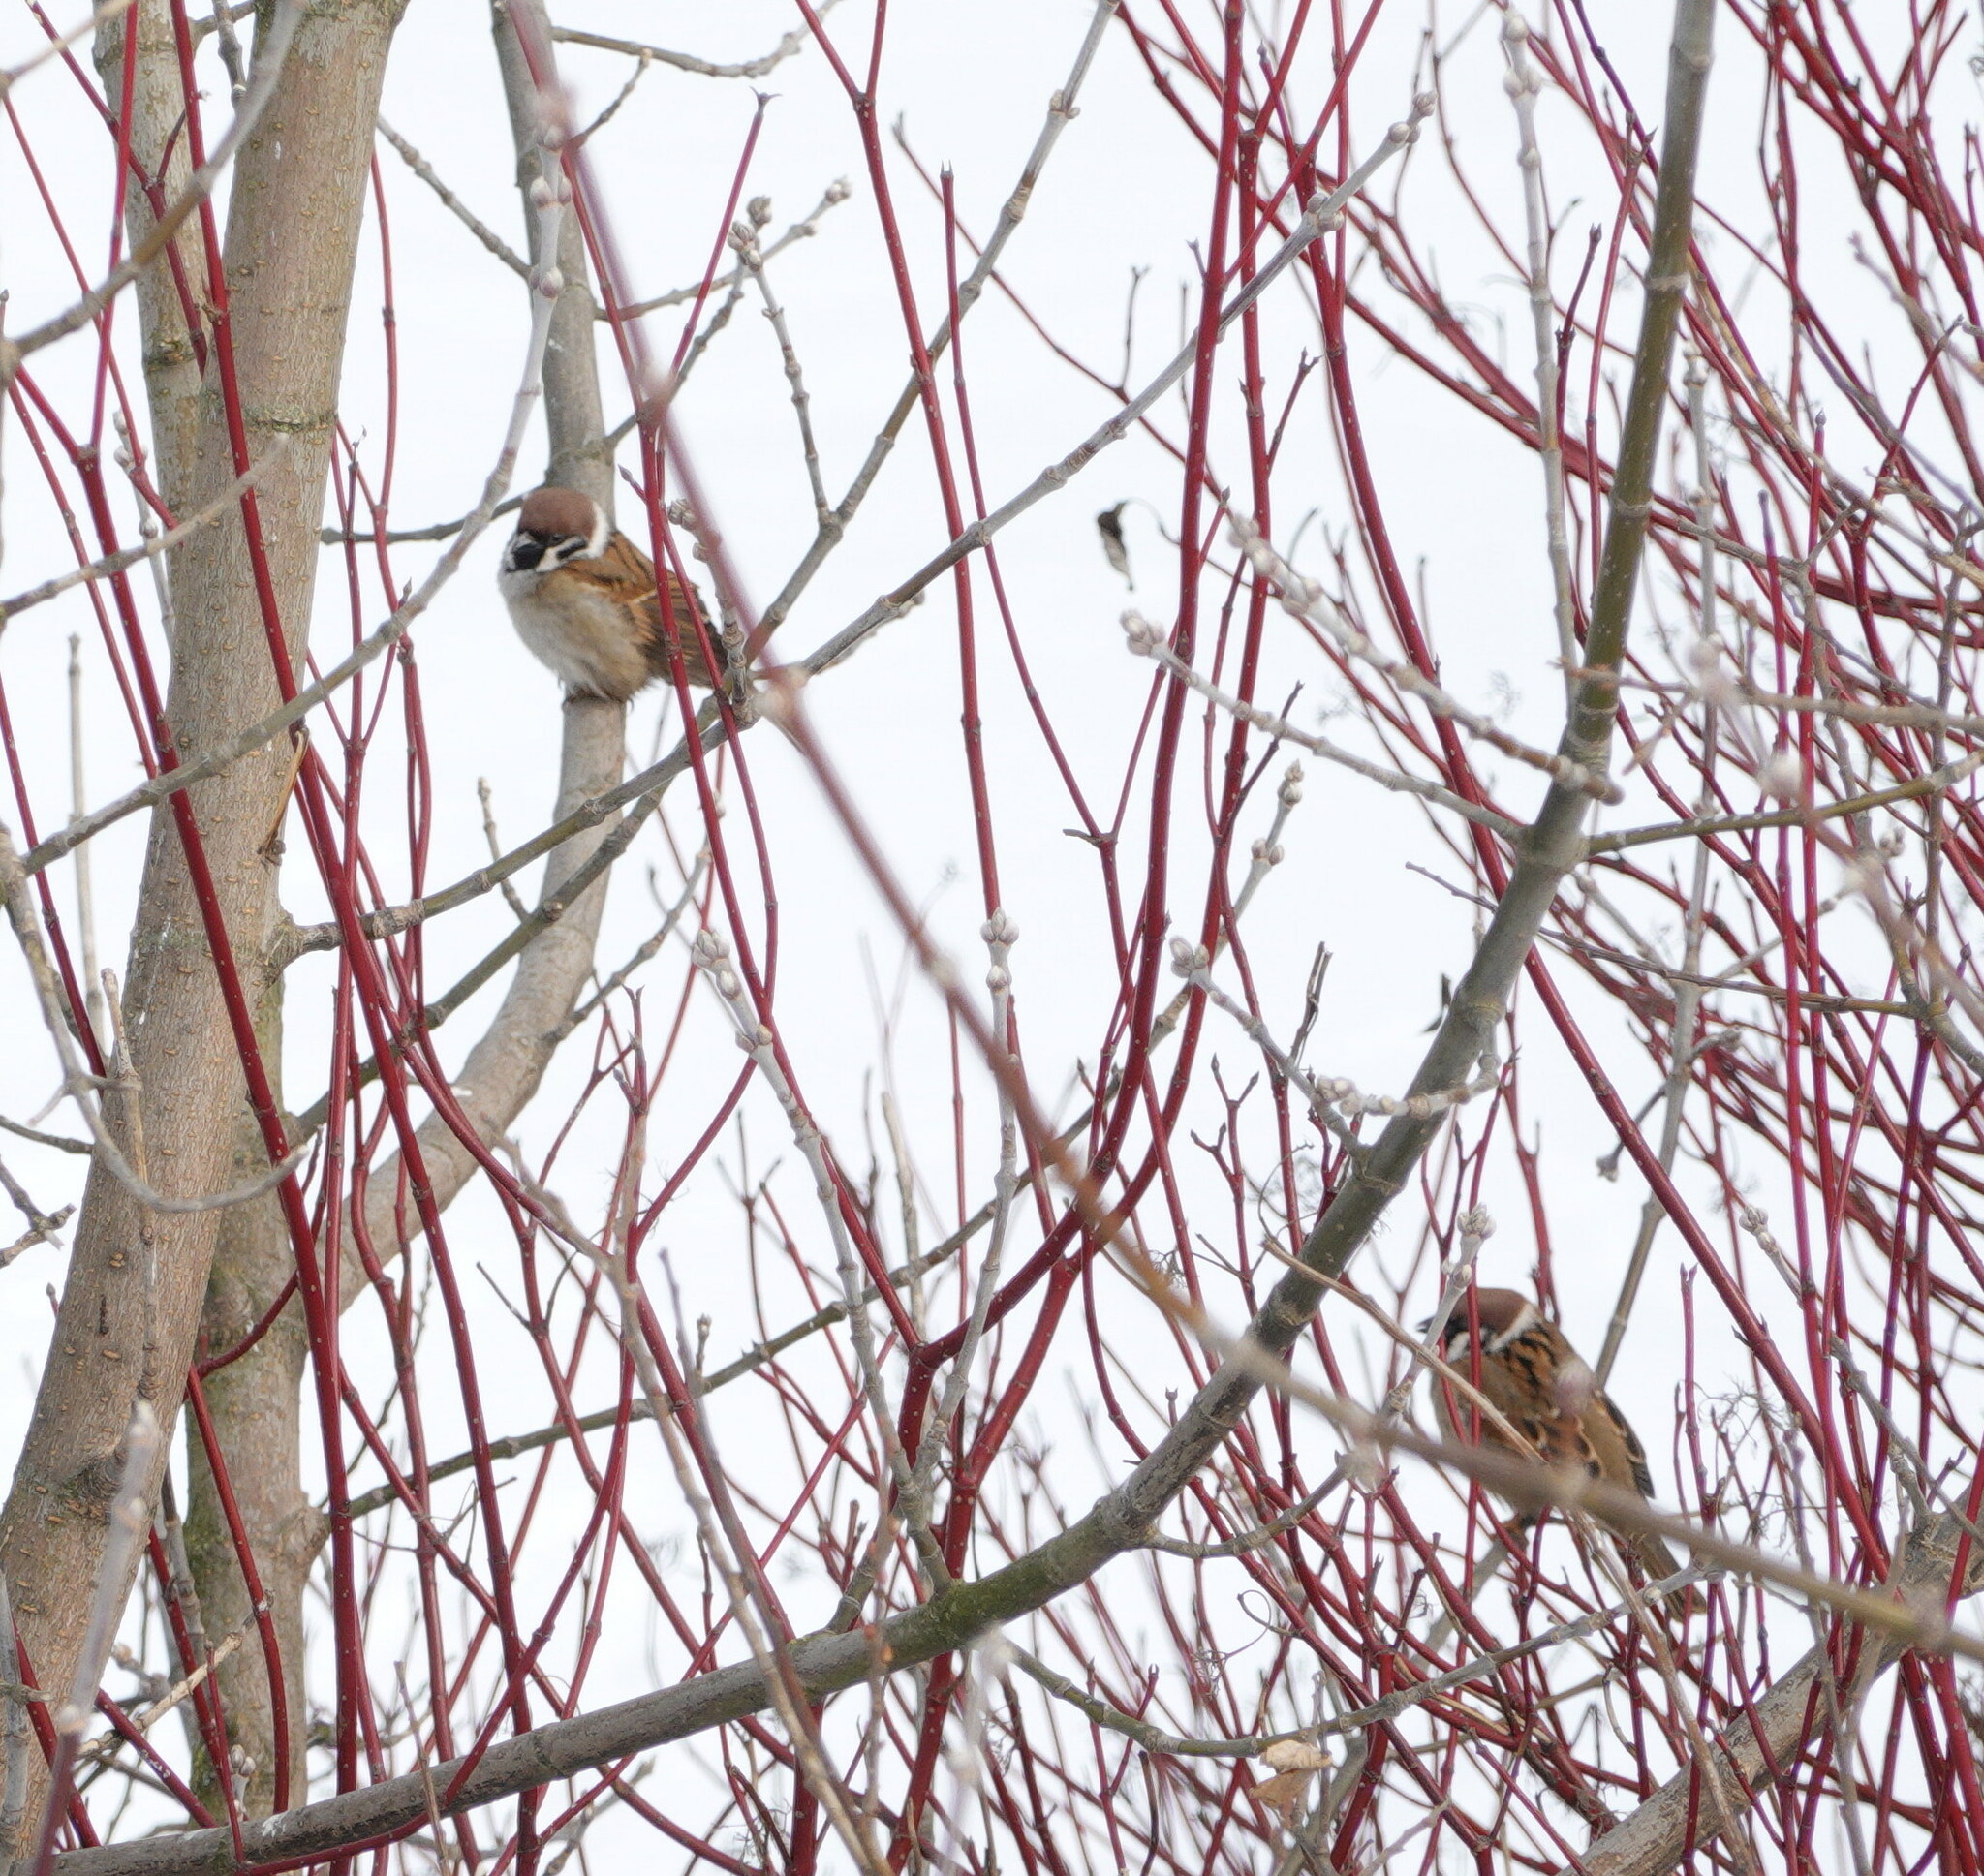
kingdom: Animalia
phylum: Chordata
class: Aves
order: Passeriformes
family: Passeridae
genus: Passer
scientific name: Passer montanus
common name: Eurasian tree sparrow
